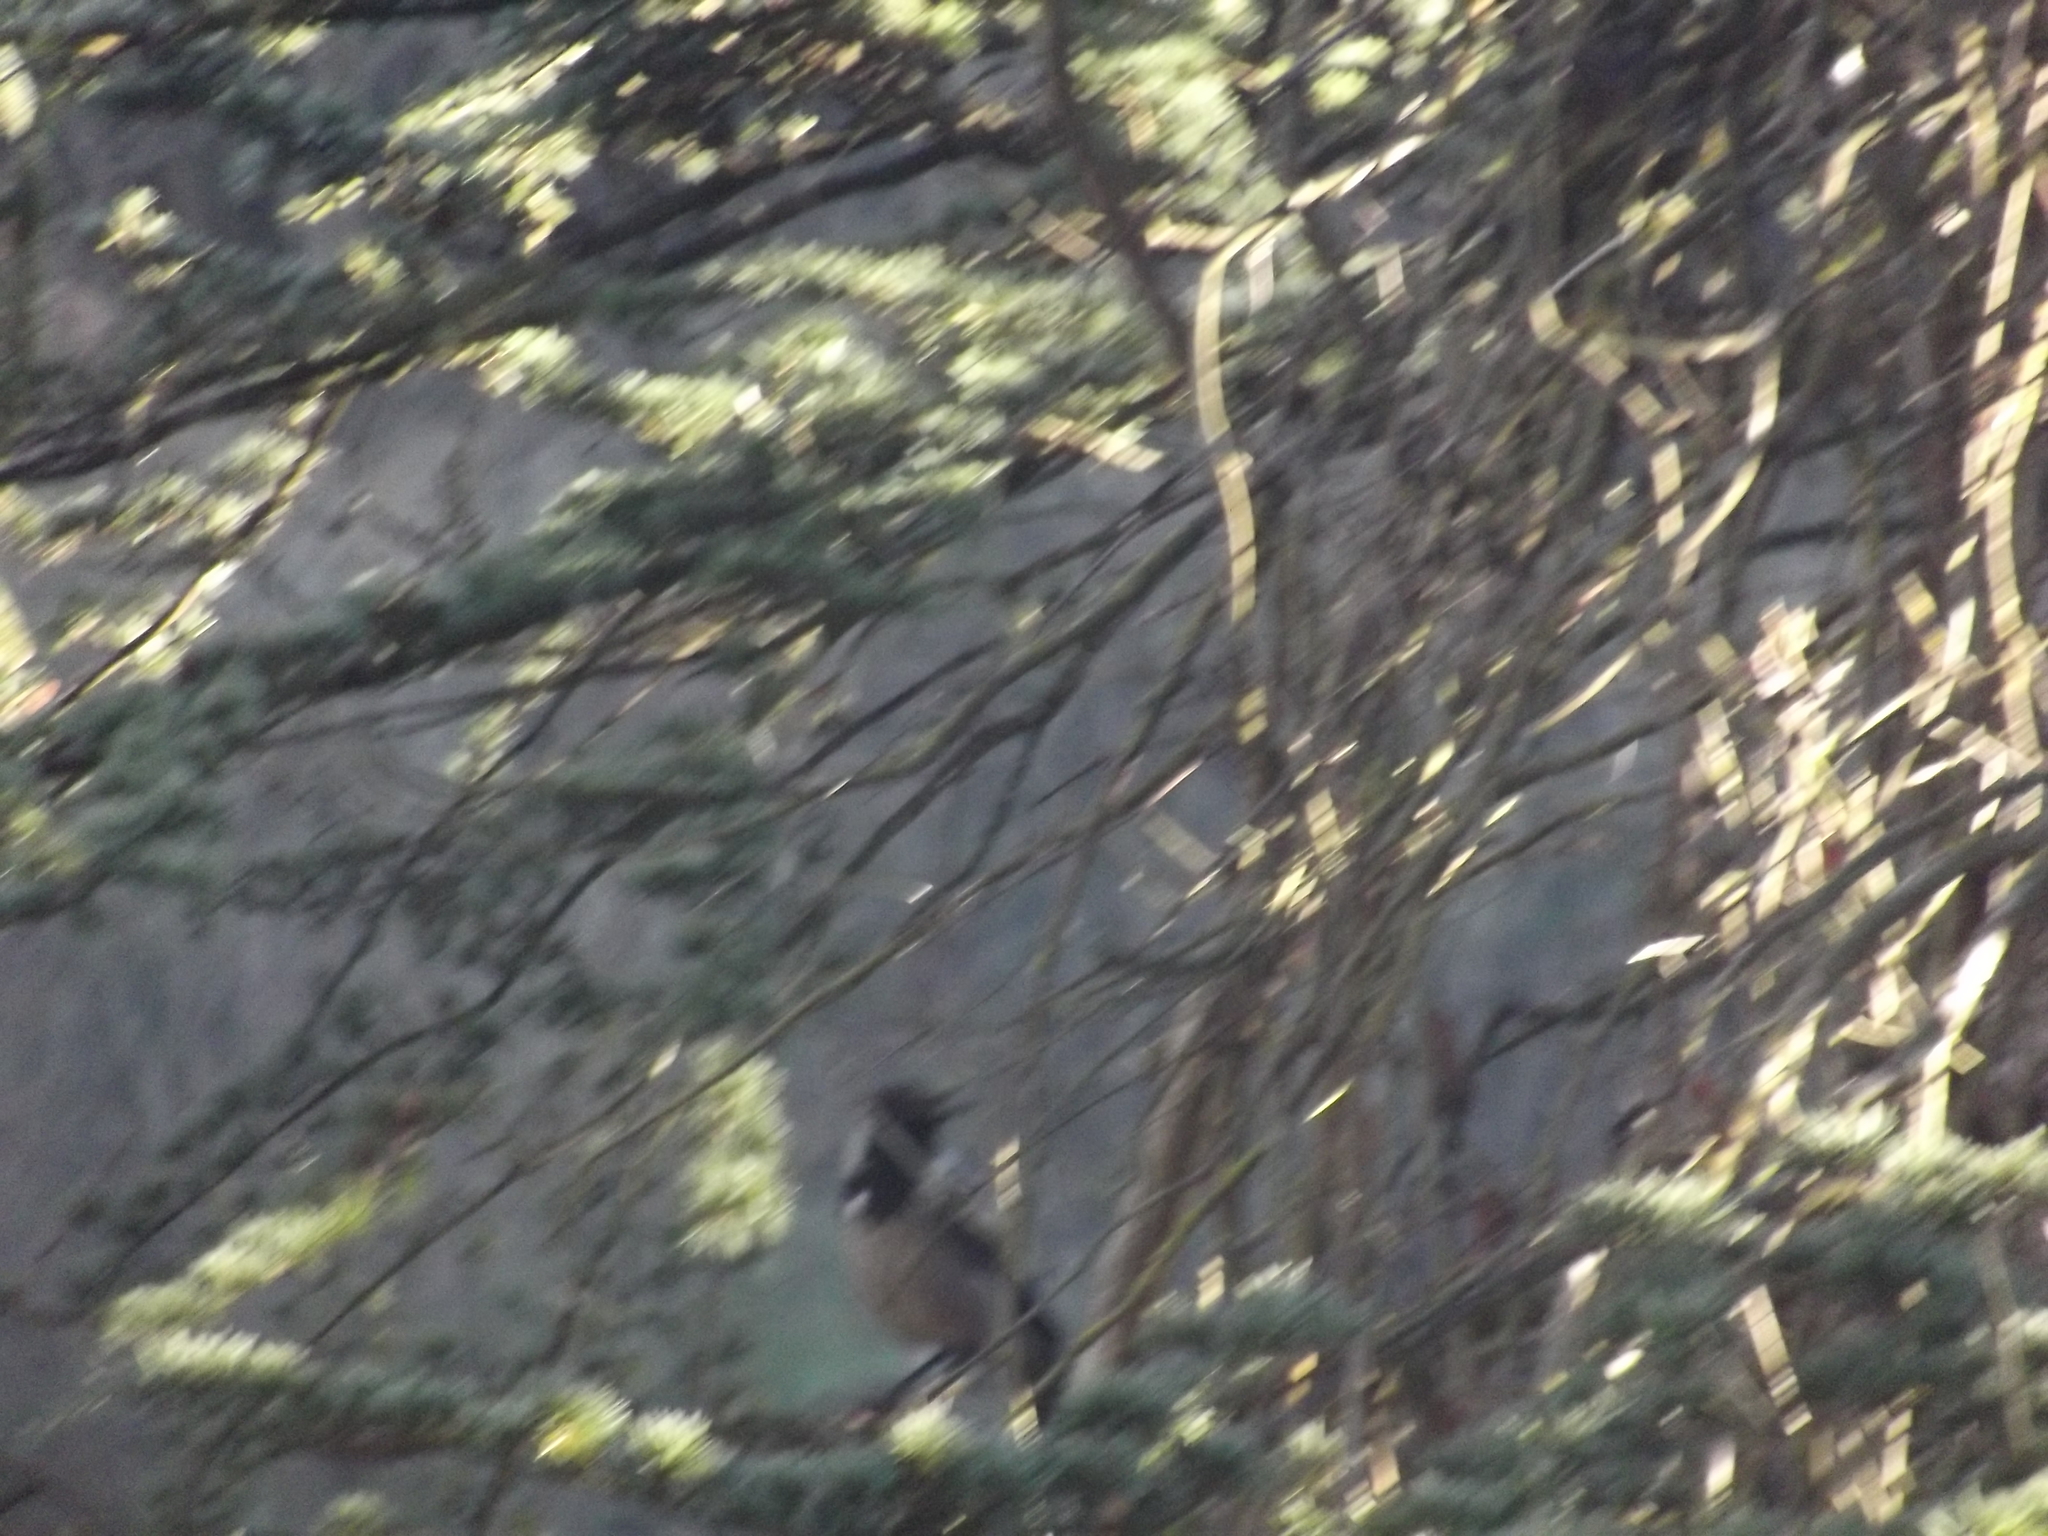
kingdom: Animalia
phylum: Chordata
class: Aves
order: Passeriformes
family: Corvidae
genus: Corvus
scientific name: Corvus cornix
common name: Hooded crow
